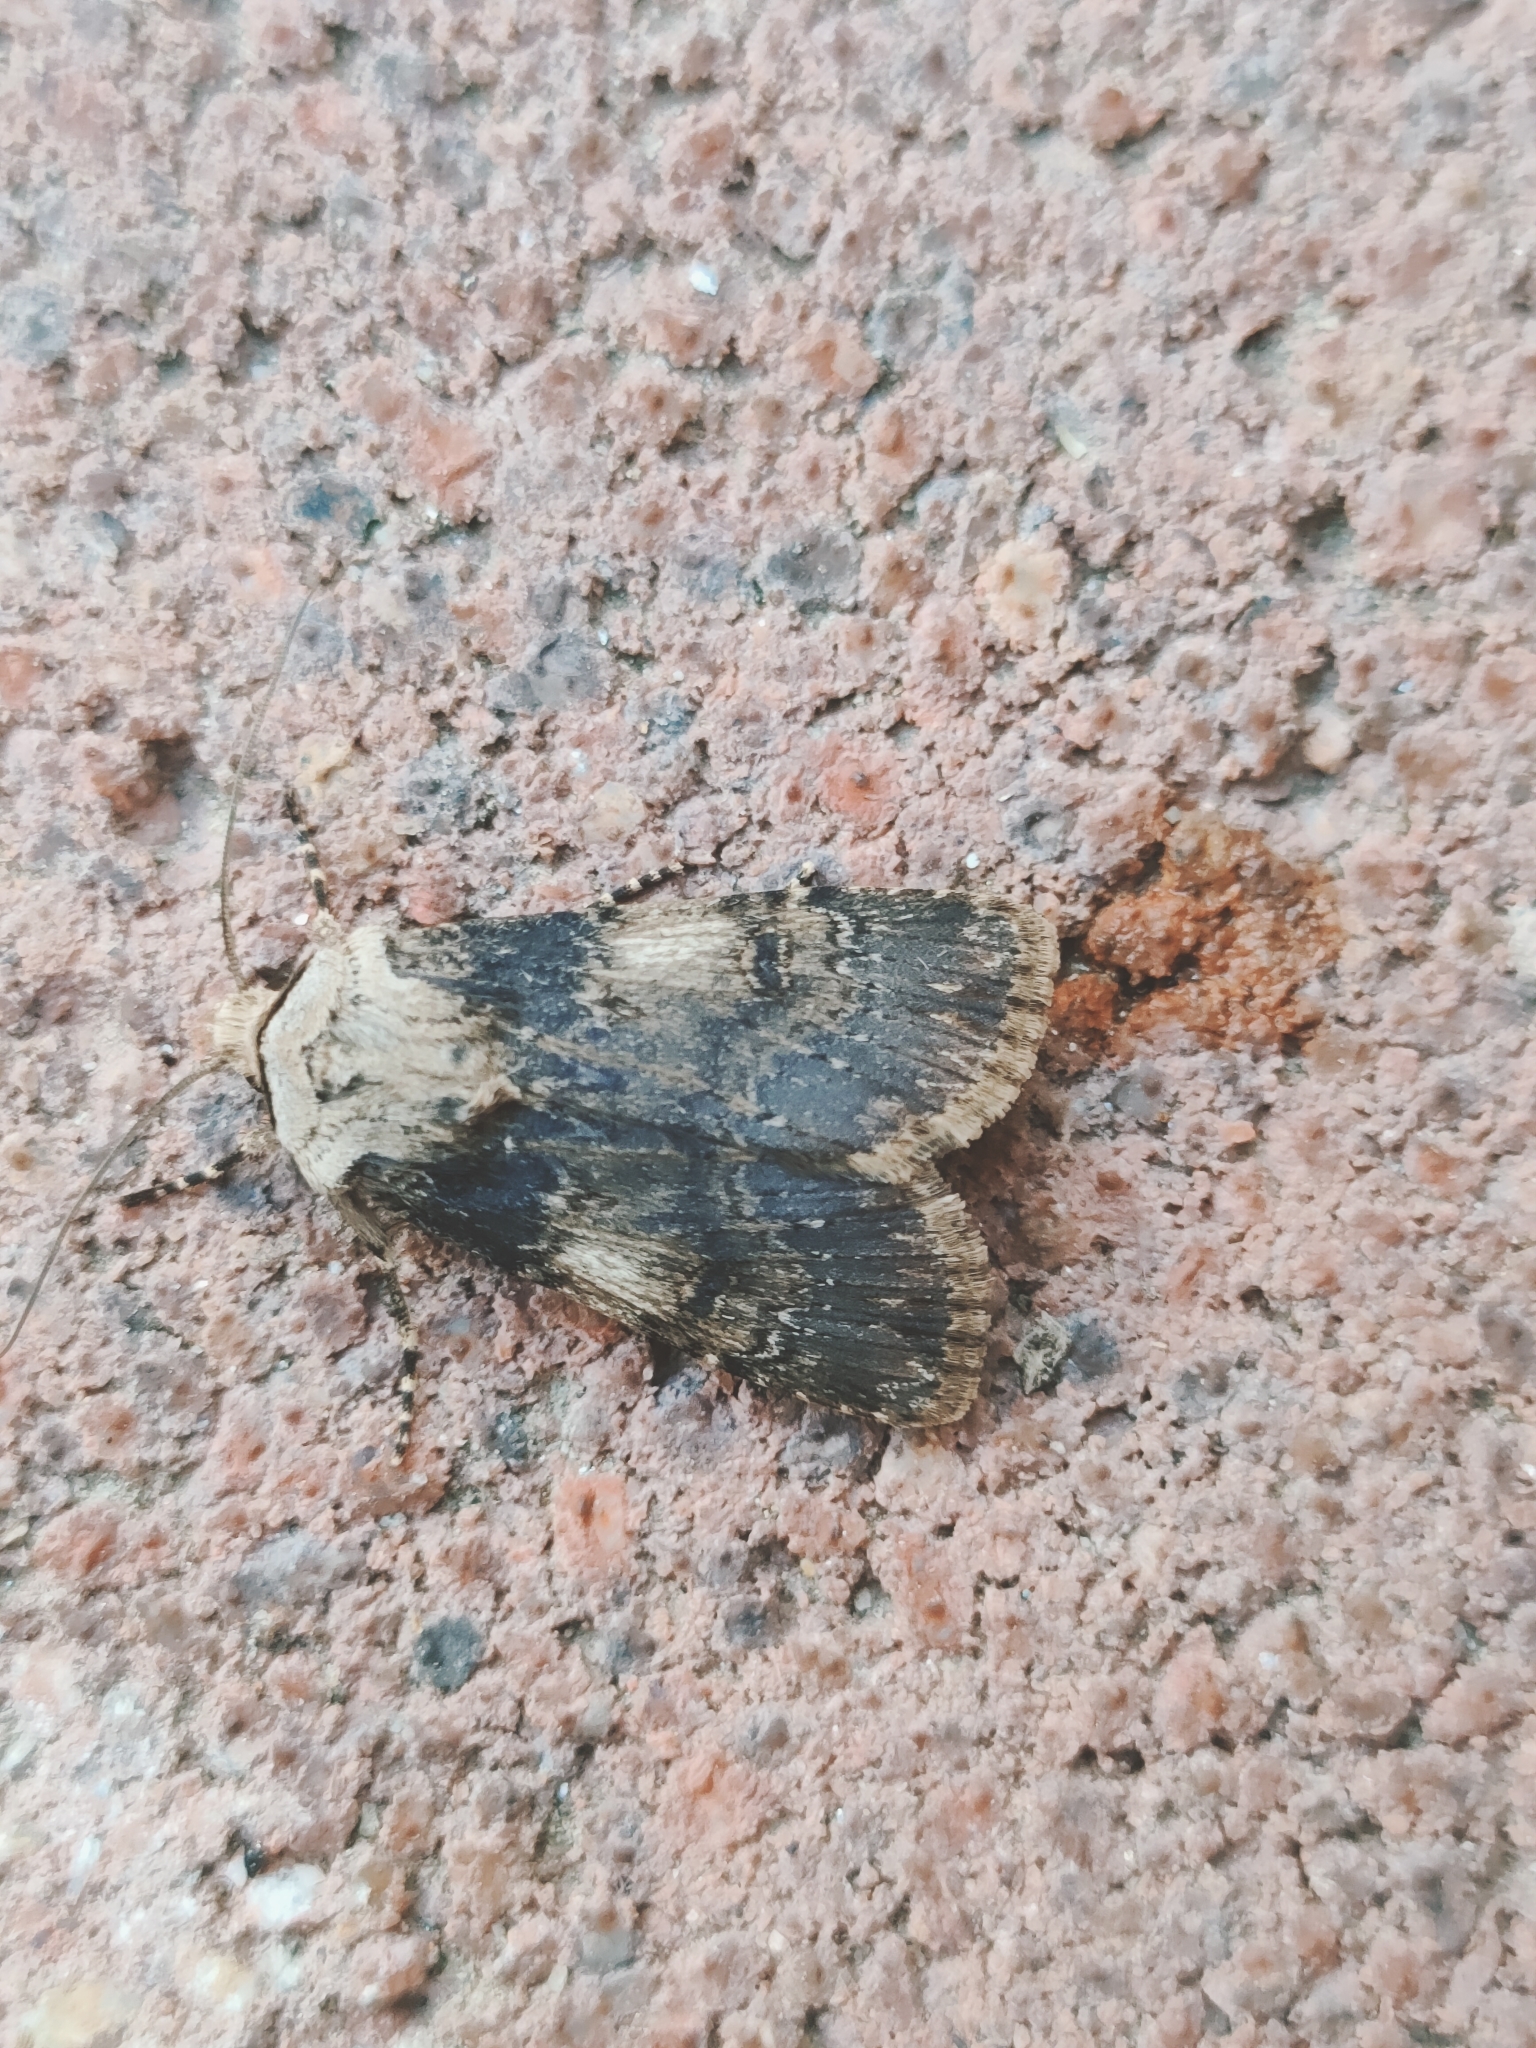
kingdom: Animalia
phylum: Arthropoda
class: Insecta
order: Lepidoptera
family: Noctuidae
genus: Agrotis
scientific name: Agrotis puta
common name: Shuttle-shaped dart
